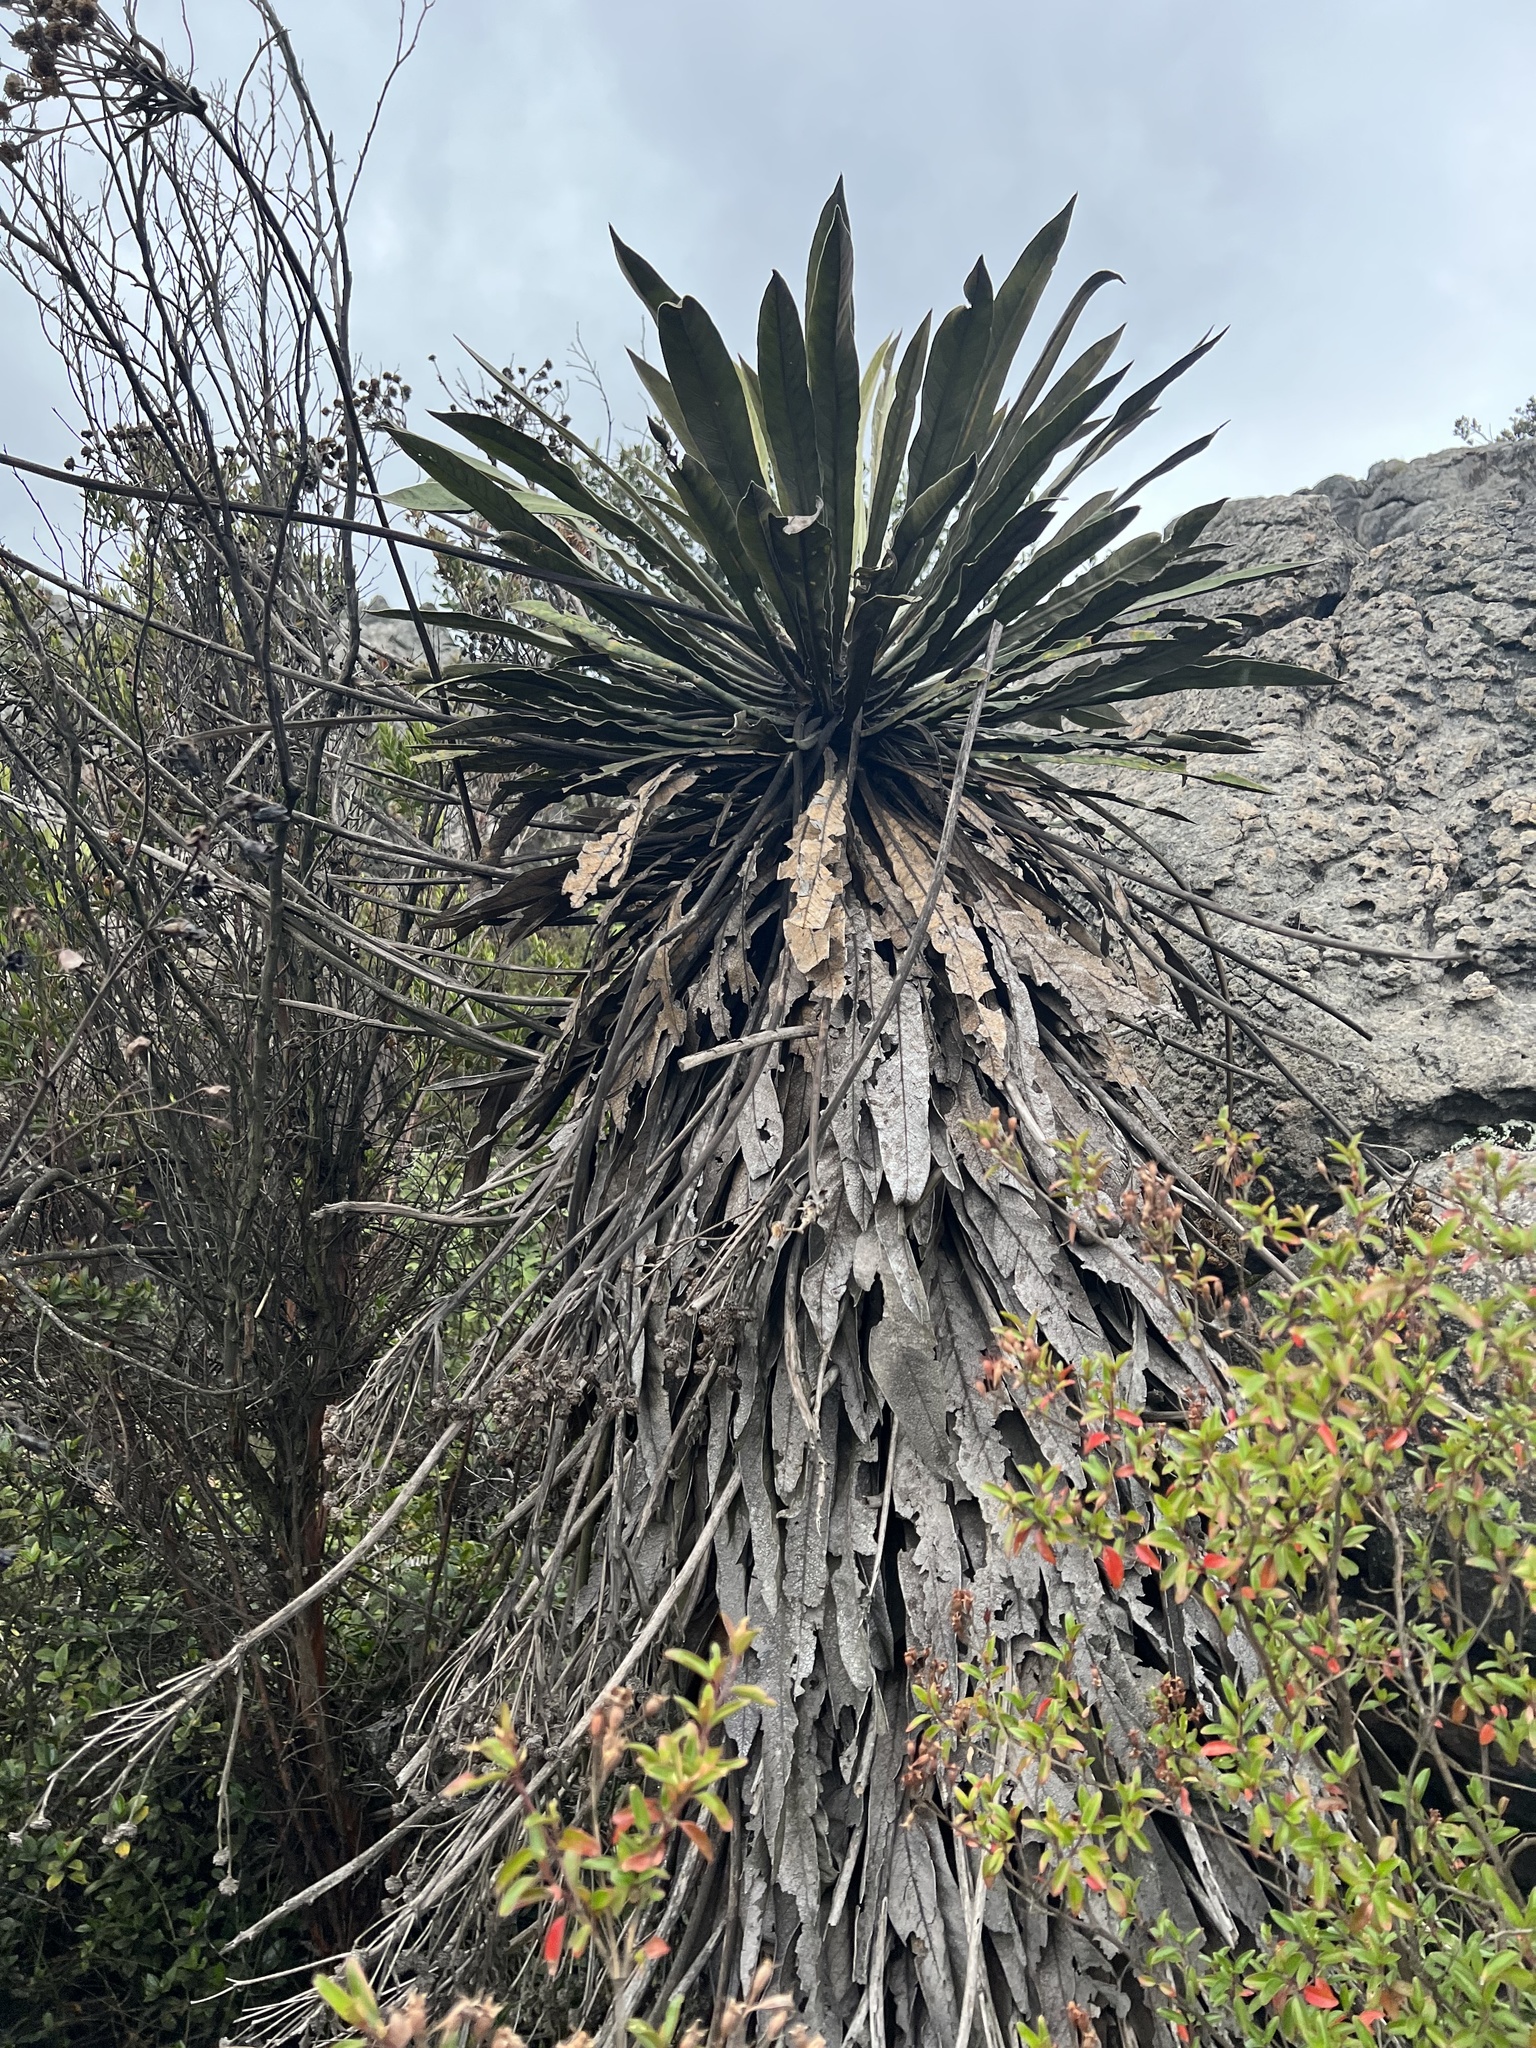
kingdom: Plantae
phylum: Tracheophyta
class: Magnoliopsida
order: Asterales
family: Asteraceae
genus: Espeletia
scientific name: Espeletia corymbosa
